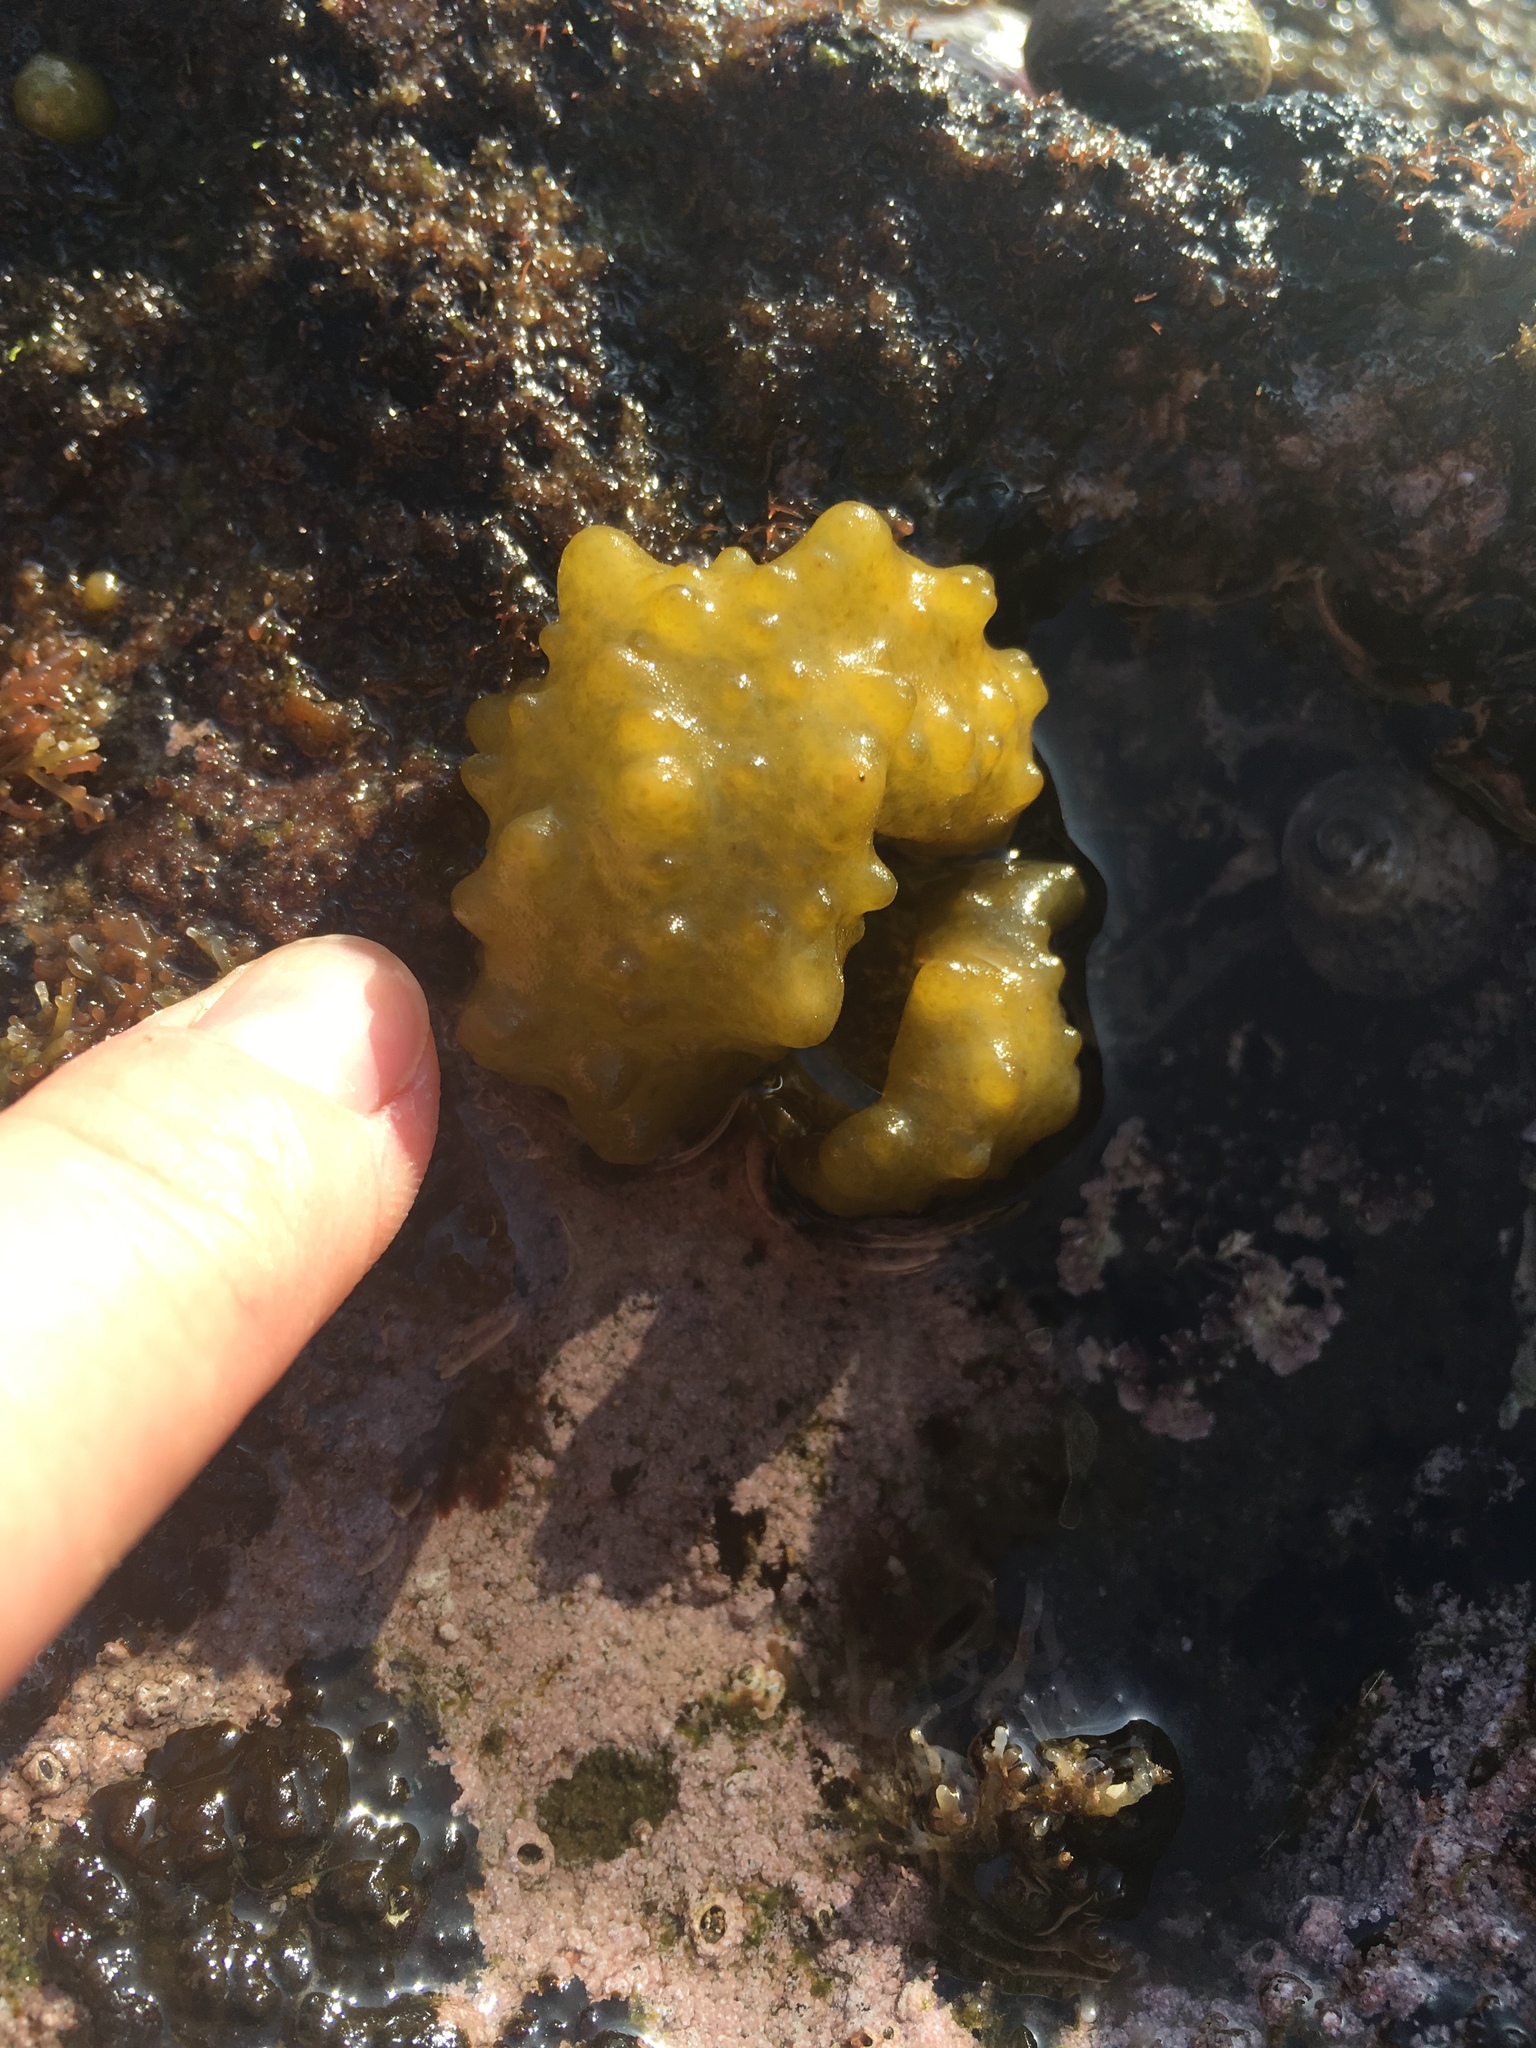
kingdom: Chromista
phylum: Ochrophyta
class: Phaeophyceae
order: Scytosiphonales
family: Scytosiphonaceae
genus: Colpomenia
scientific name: Colpomenia
